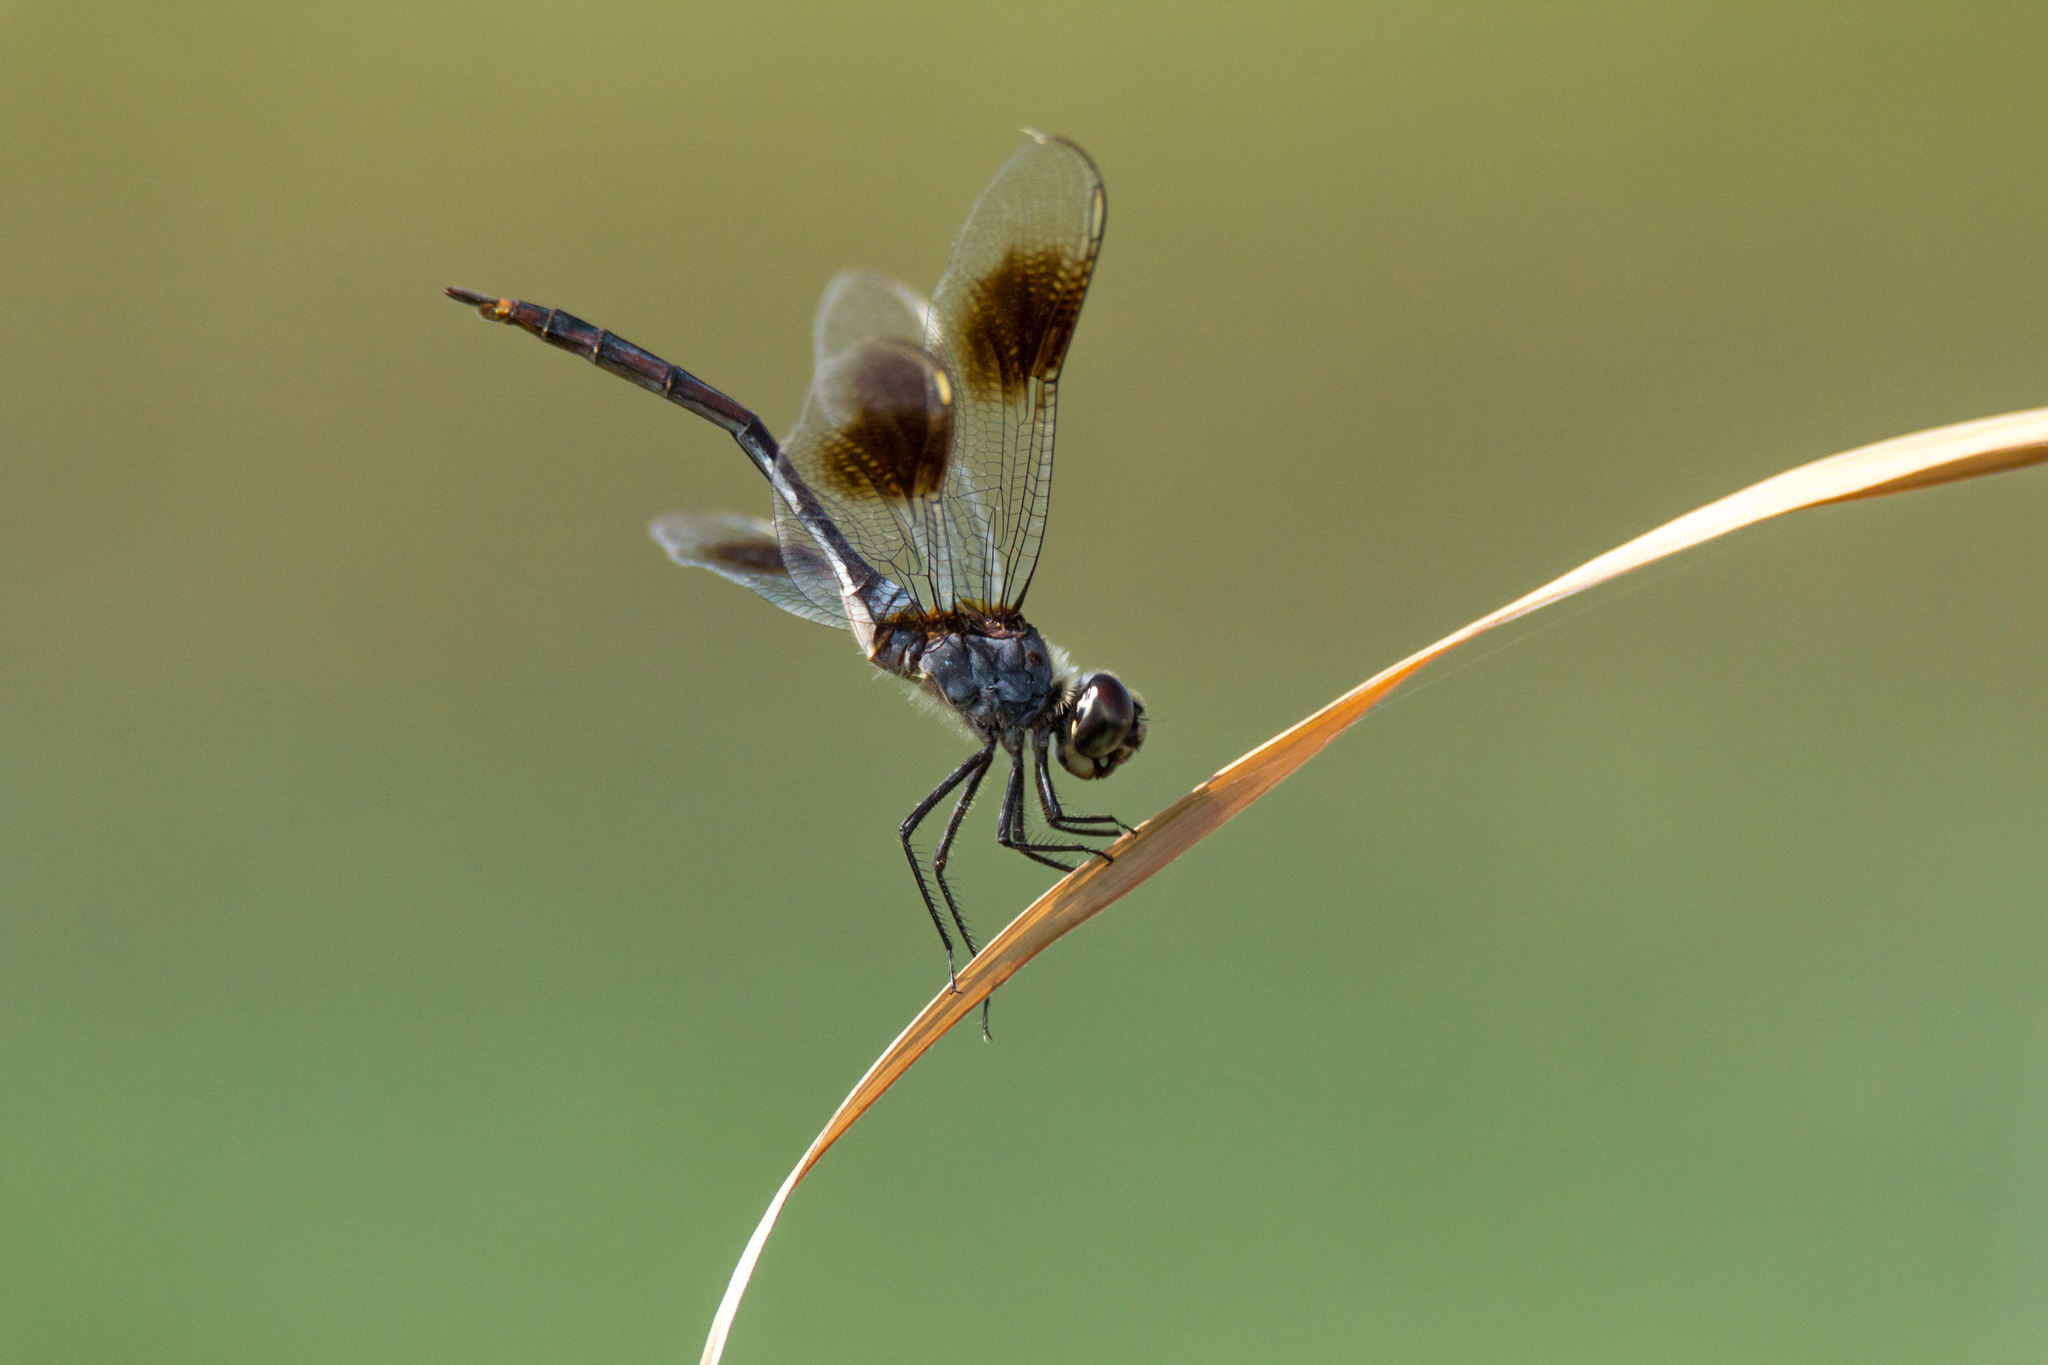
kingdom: Animalia
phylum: Arthropoda
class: Insecta
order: Odonata
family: Libellulidae
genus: Brachymesia
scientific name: Brachymesia gravida
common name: Four-spotted pennant
